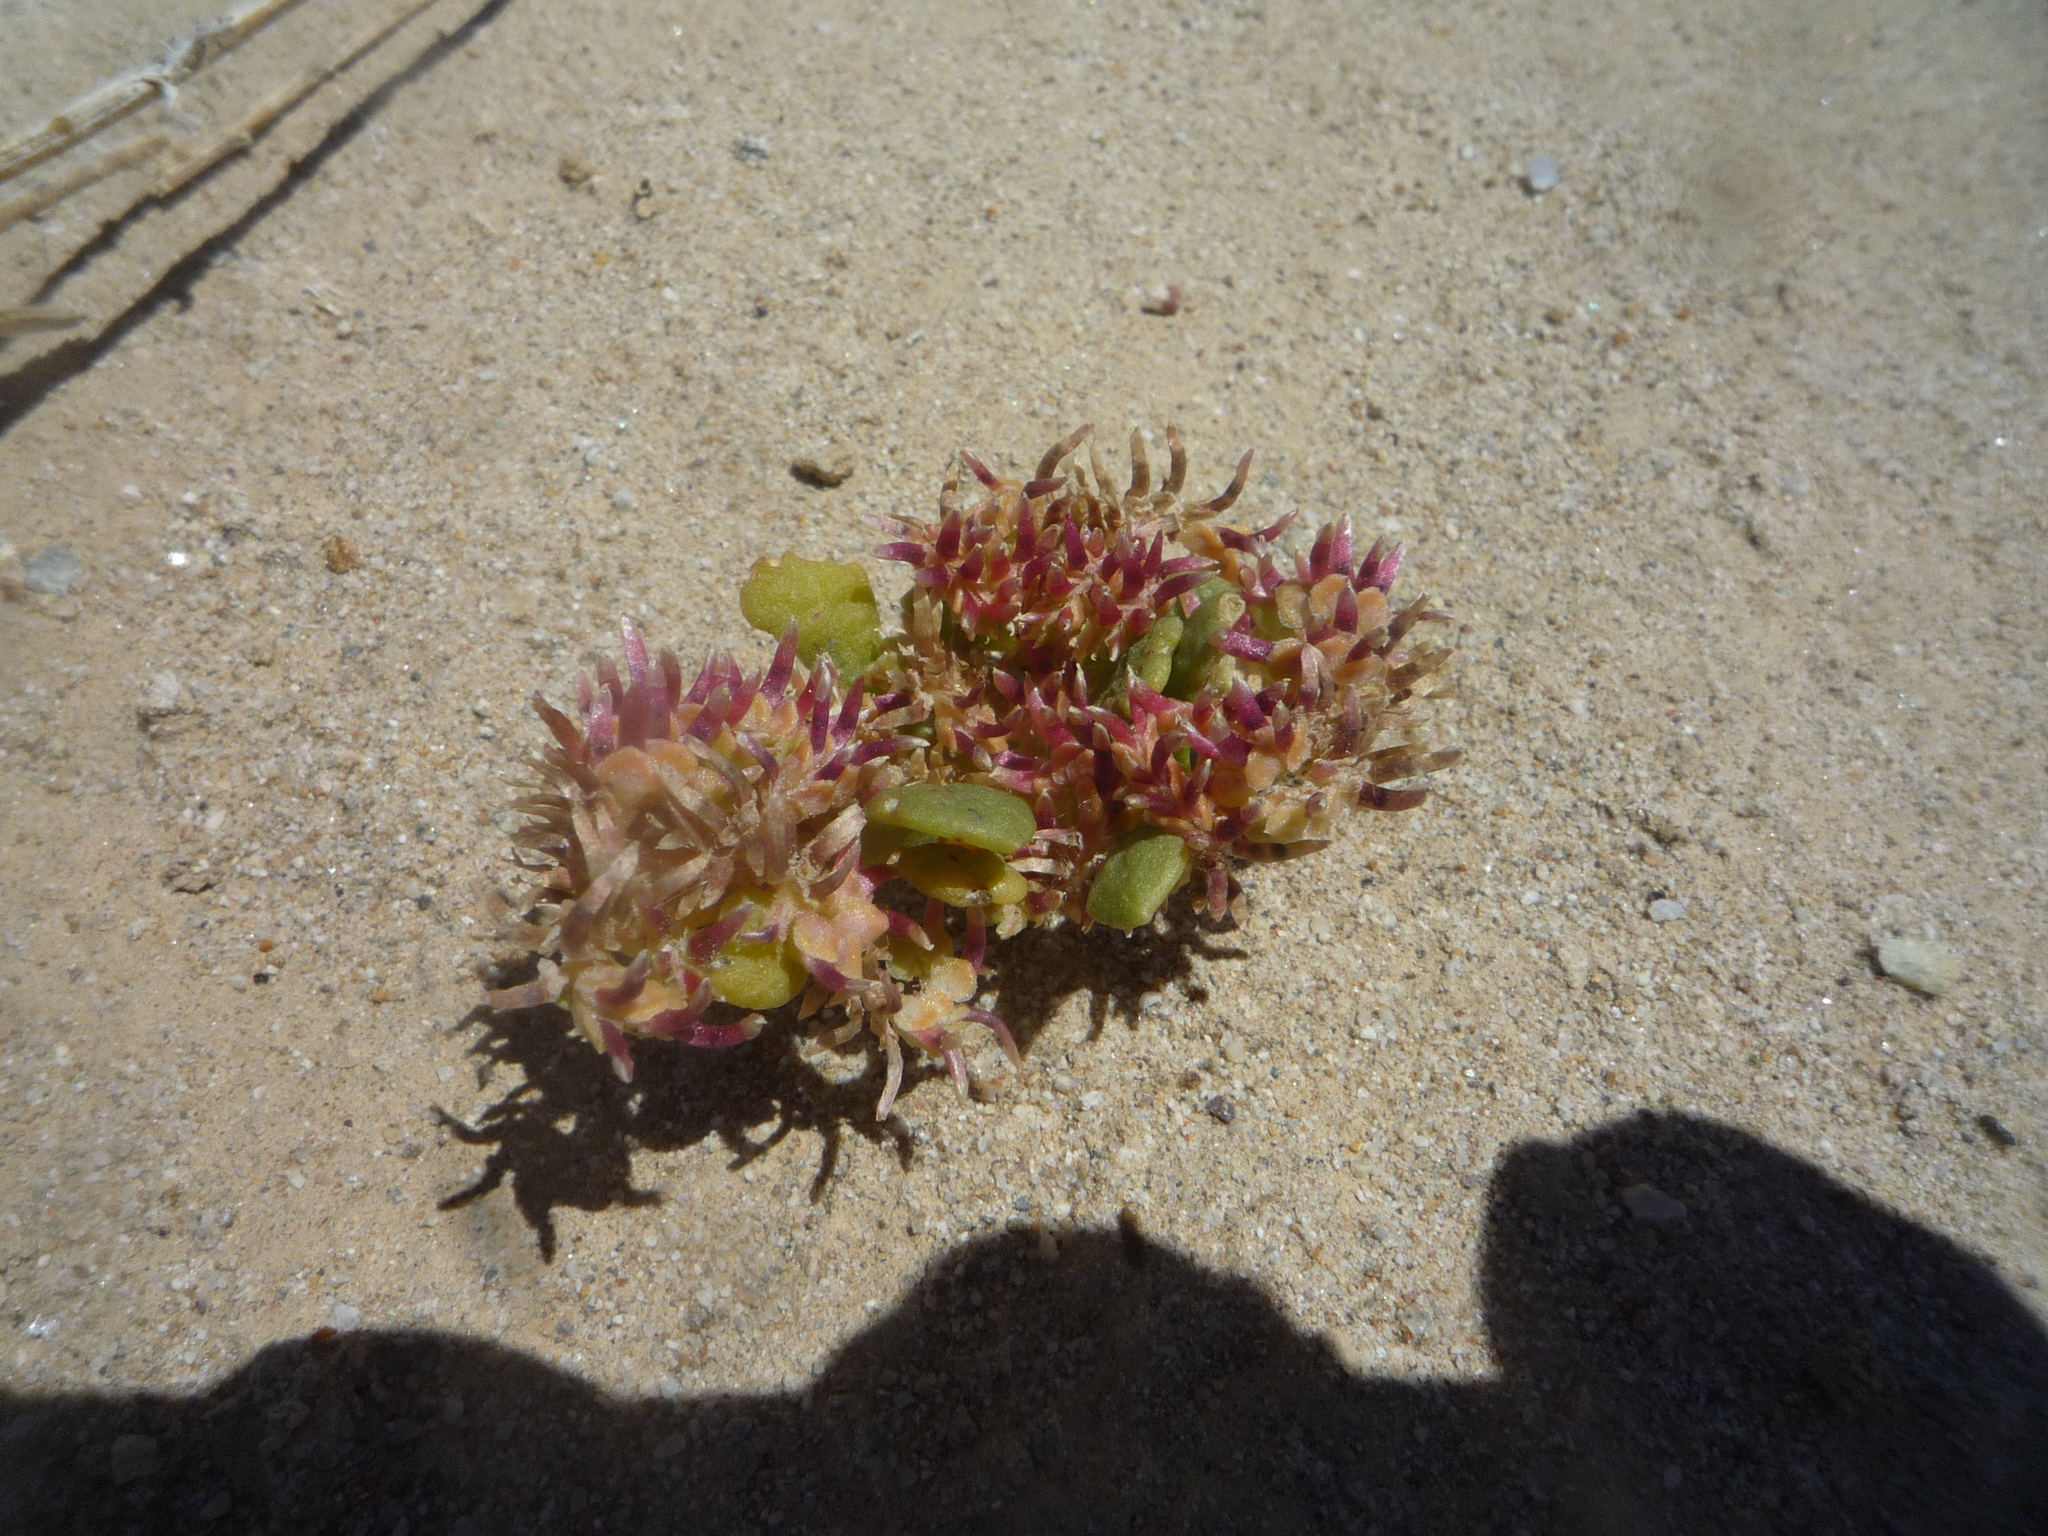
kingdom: Plantae
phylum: Tracheophyta
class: Magnoliopsida
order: Caryophyllales
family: Montiaceae
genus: Calyptridium
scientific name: Calyptridium monandrum
